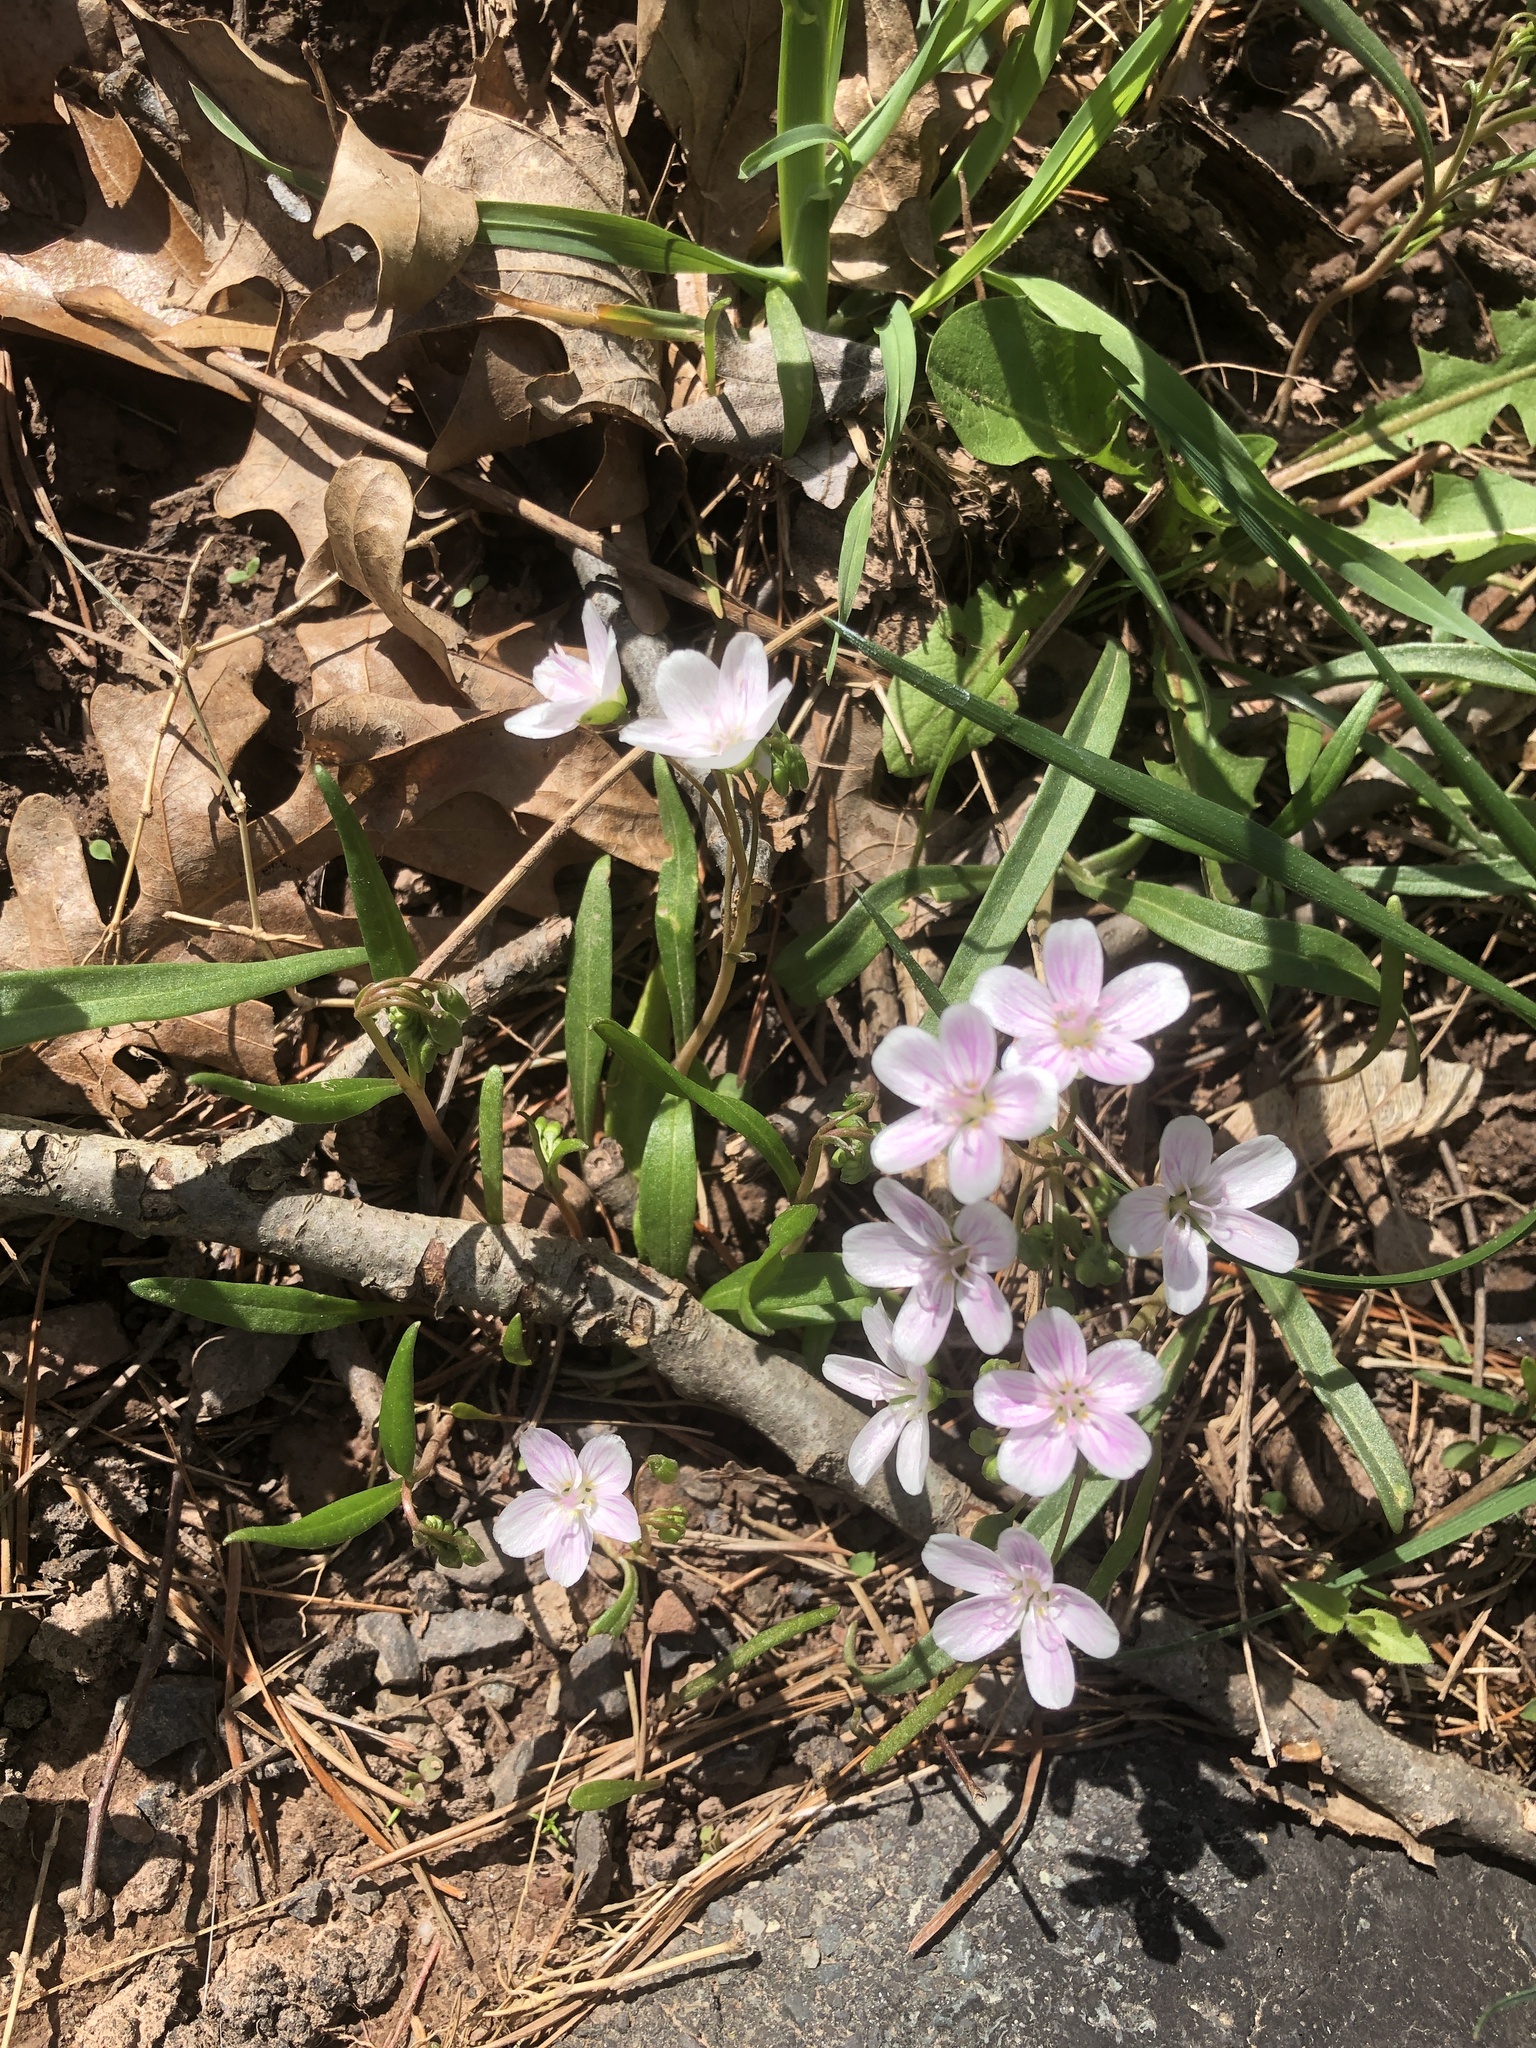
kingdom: Plantae
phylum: Tracheophyta
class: Magnoliopsida
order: Caryophyllales
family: Montiaceae
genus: Claytonia
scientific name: Claytonia virginica
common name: Virginia springbeauty
